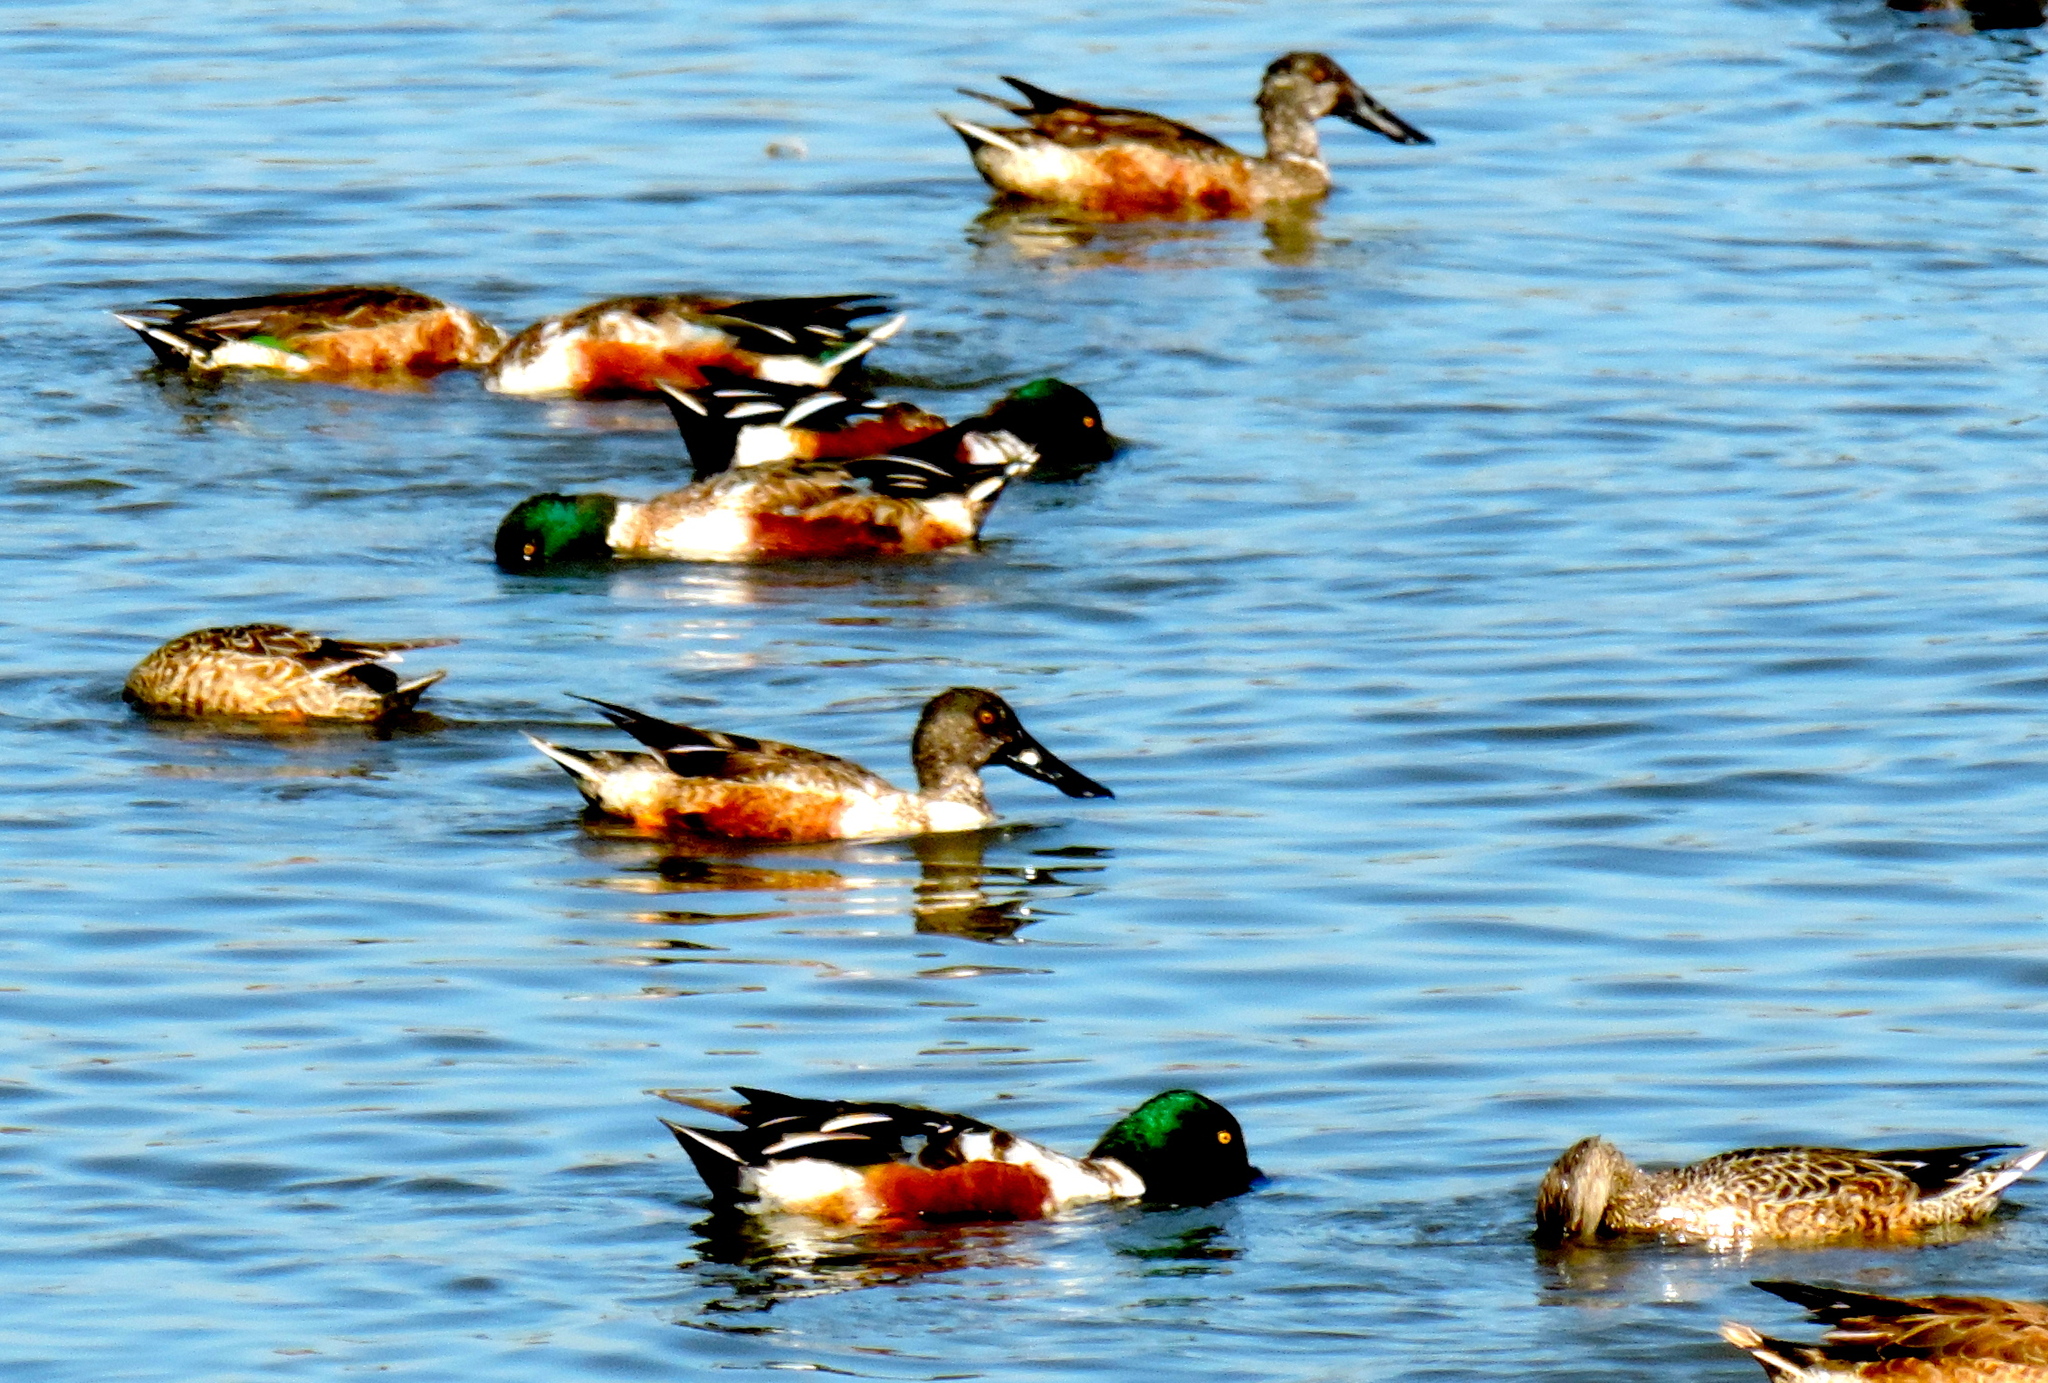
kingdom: Animalia
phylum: Chordata
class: Aves
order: Anseriformes
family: Anatidae
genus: Spatula
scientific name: Spatula clypeata
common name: Northern shoveler
